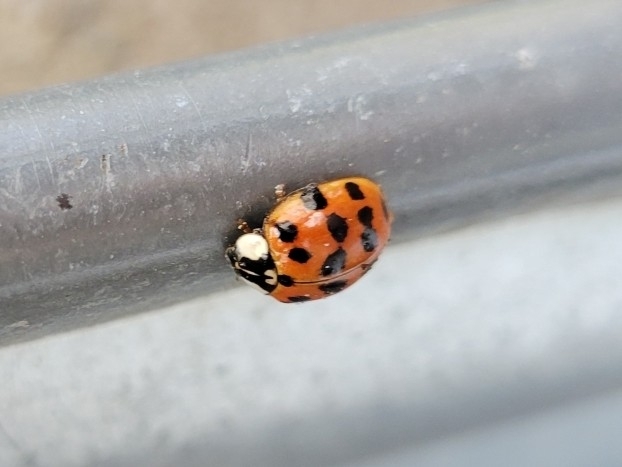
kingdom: Animalia
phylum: Arthropoda
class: Insecta
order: Coleoptera
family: Coccinellidae
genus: Harmonia
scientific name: Harmonia axyridis
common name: Harlequin ladybird
